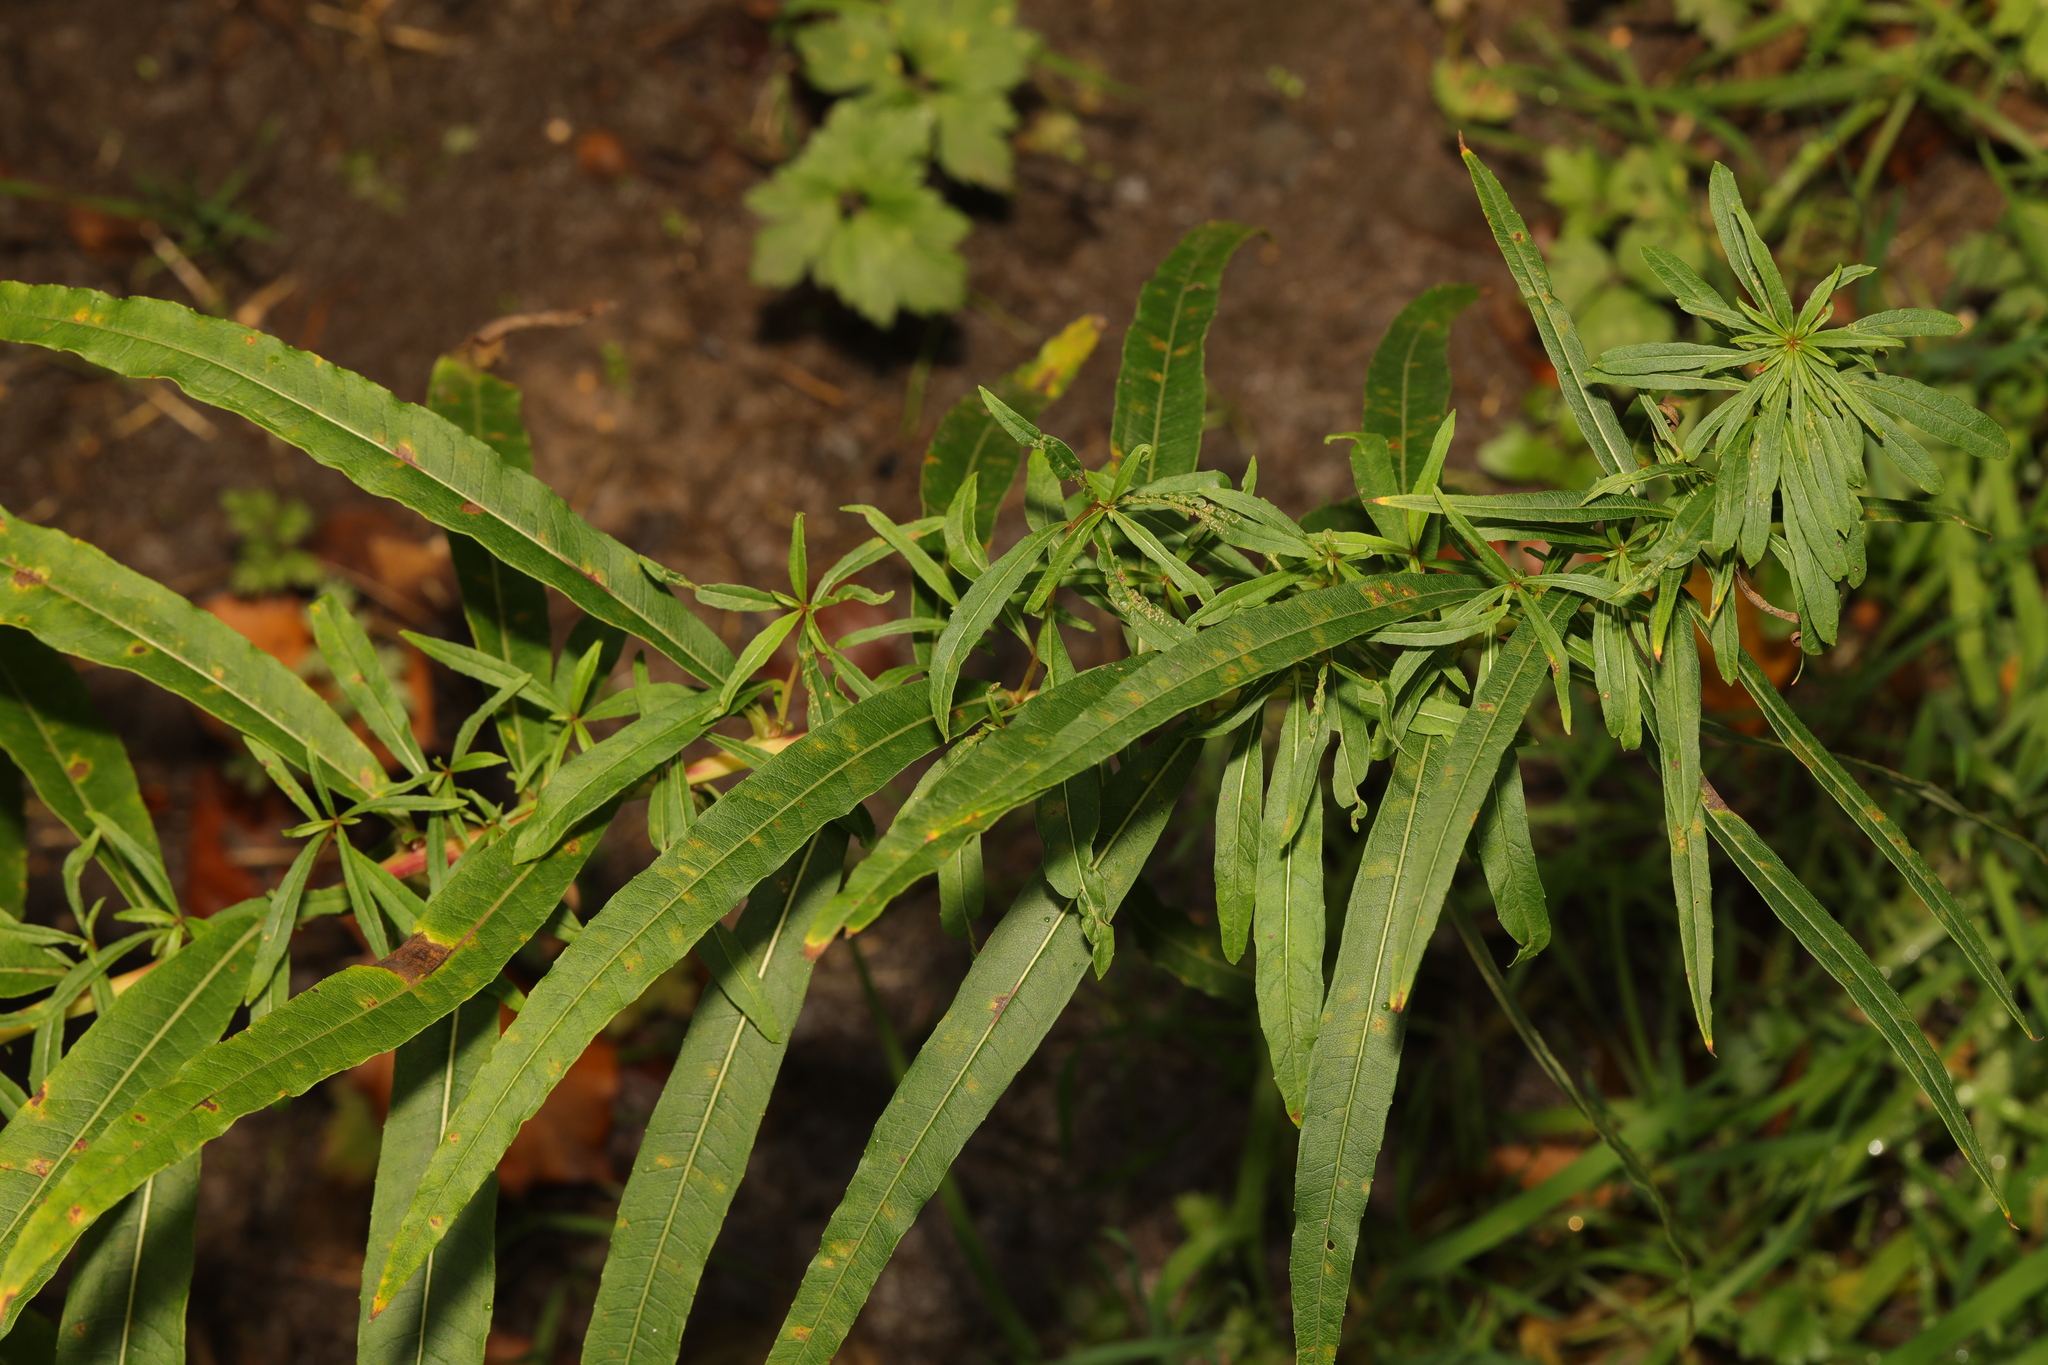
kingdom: Plantae
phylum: Tracheophyta
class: Magnoliopsida
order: Myrtales
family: Onagraceae
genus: Chamaenerion
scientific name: Chamaenerion angustifolium
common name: Fireweed
